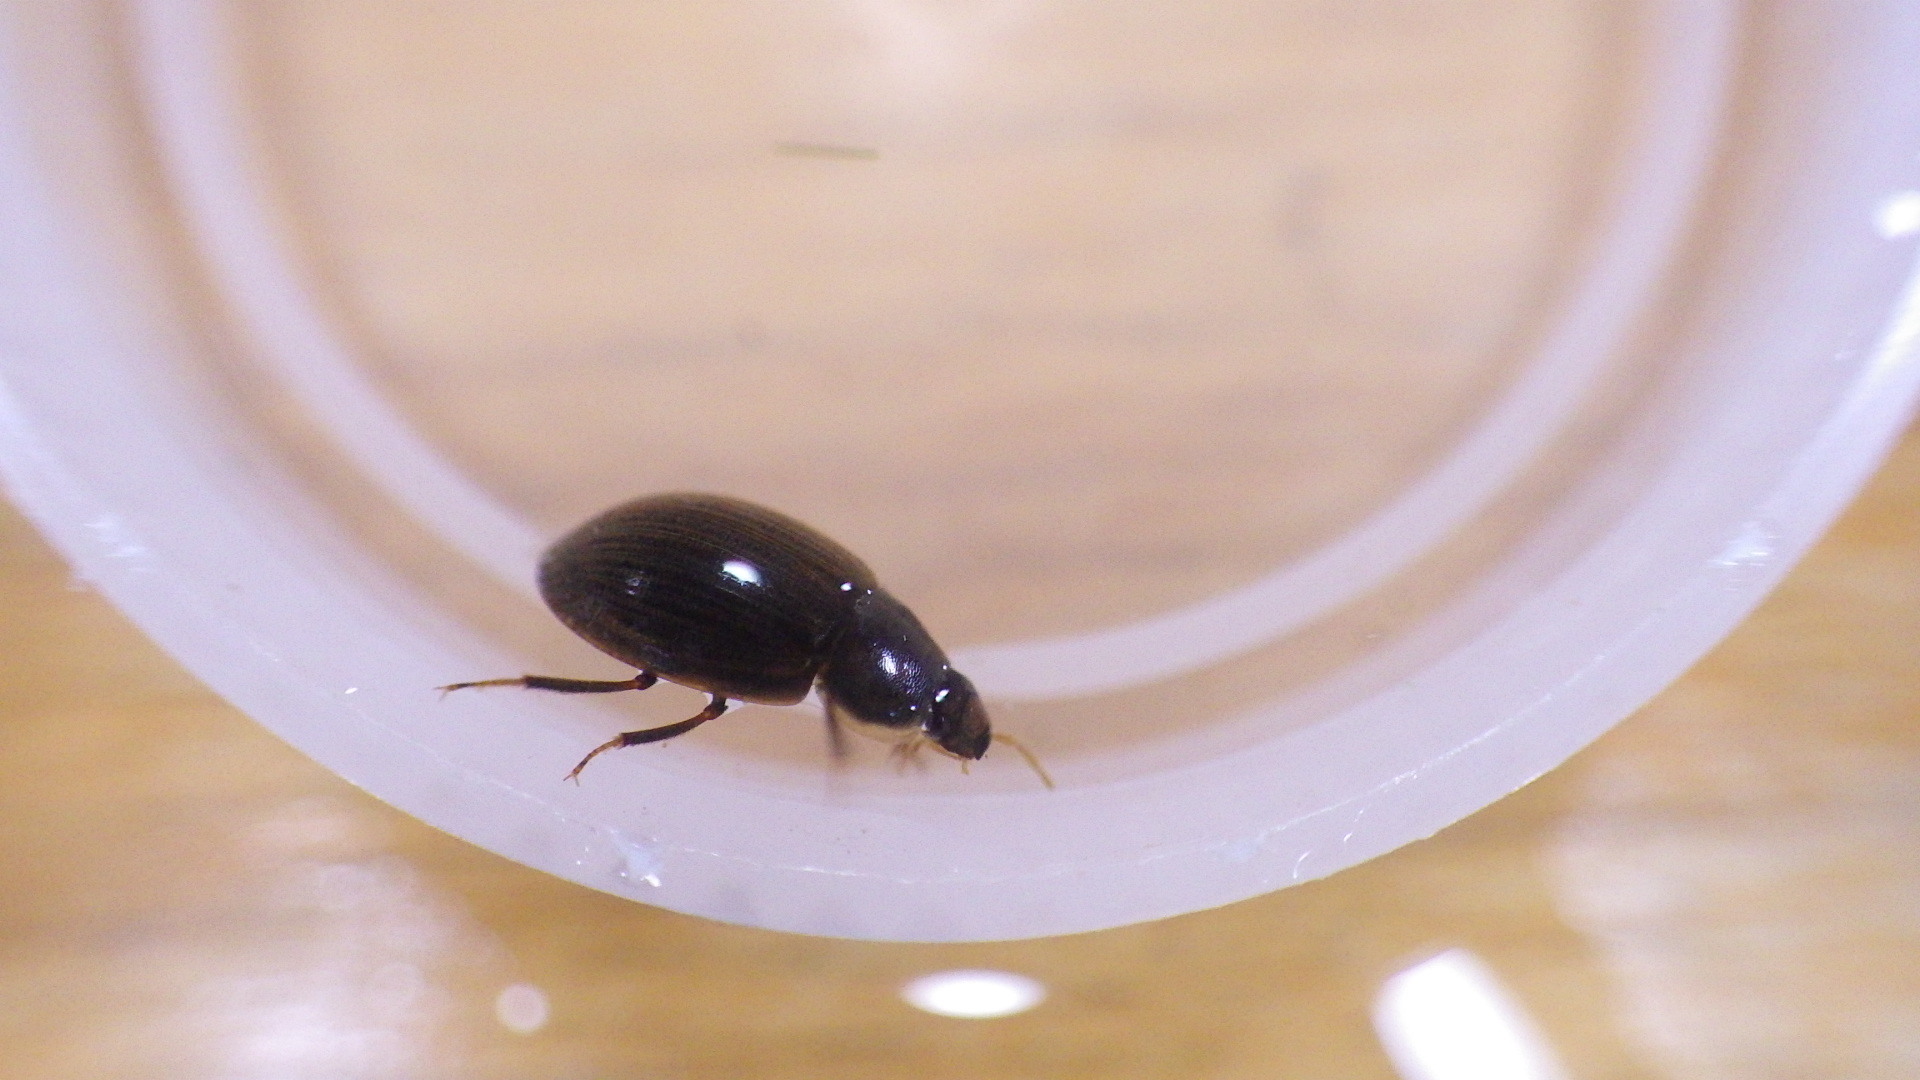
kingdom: Animalia
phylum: Arthropoda
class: Insecta
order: Coleoptera
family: Hydrophilidae
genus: Helochares
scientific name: Helochares maculicollis
